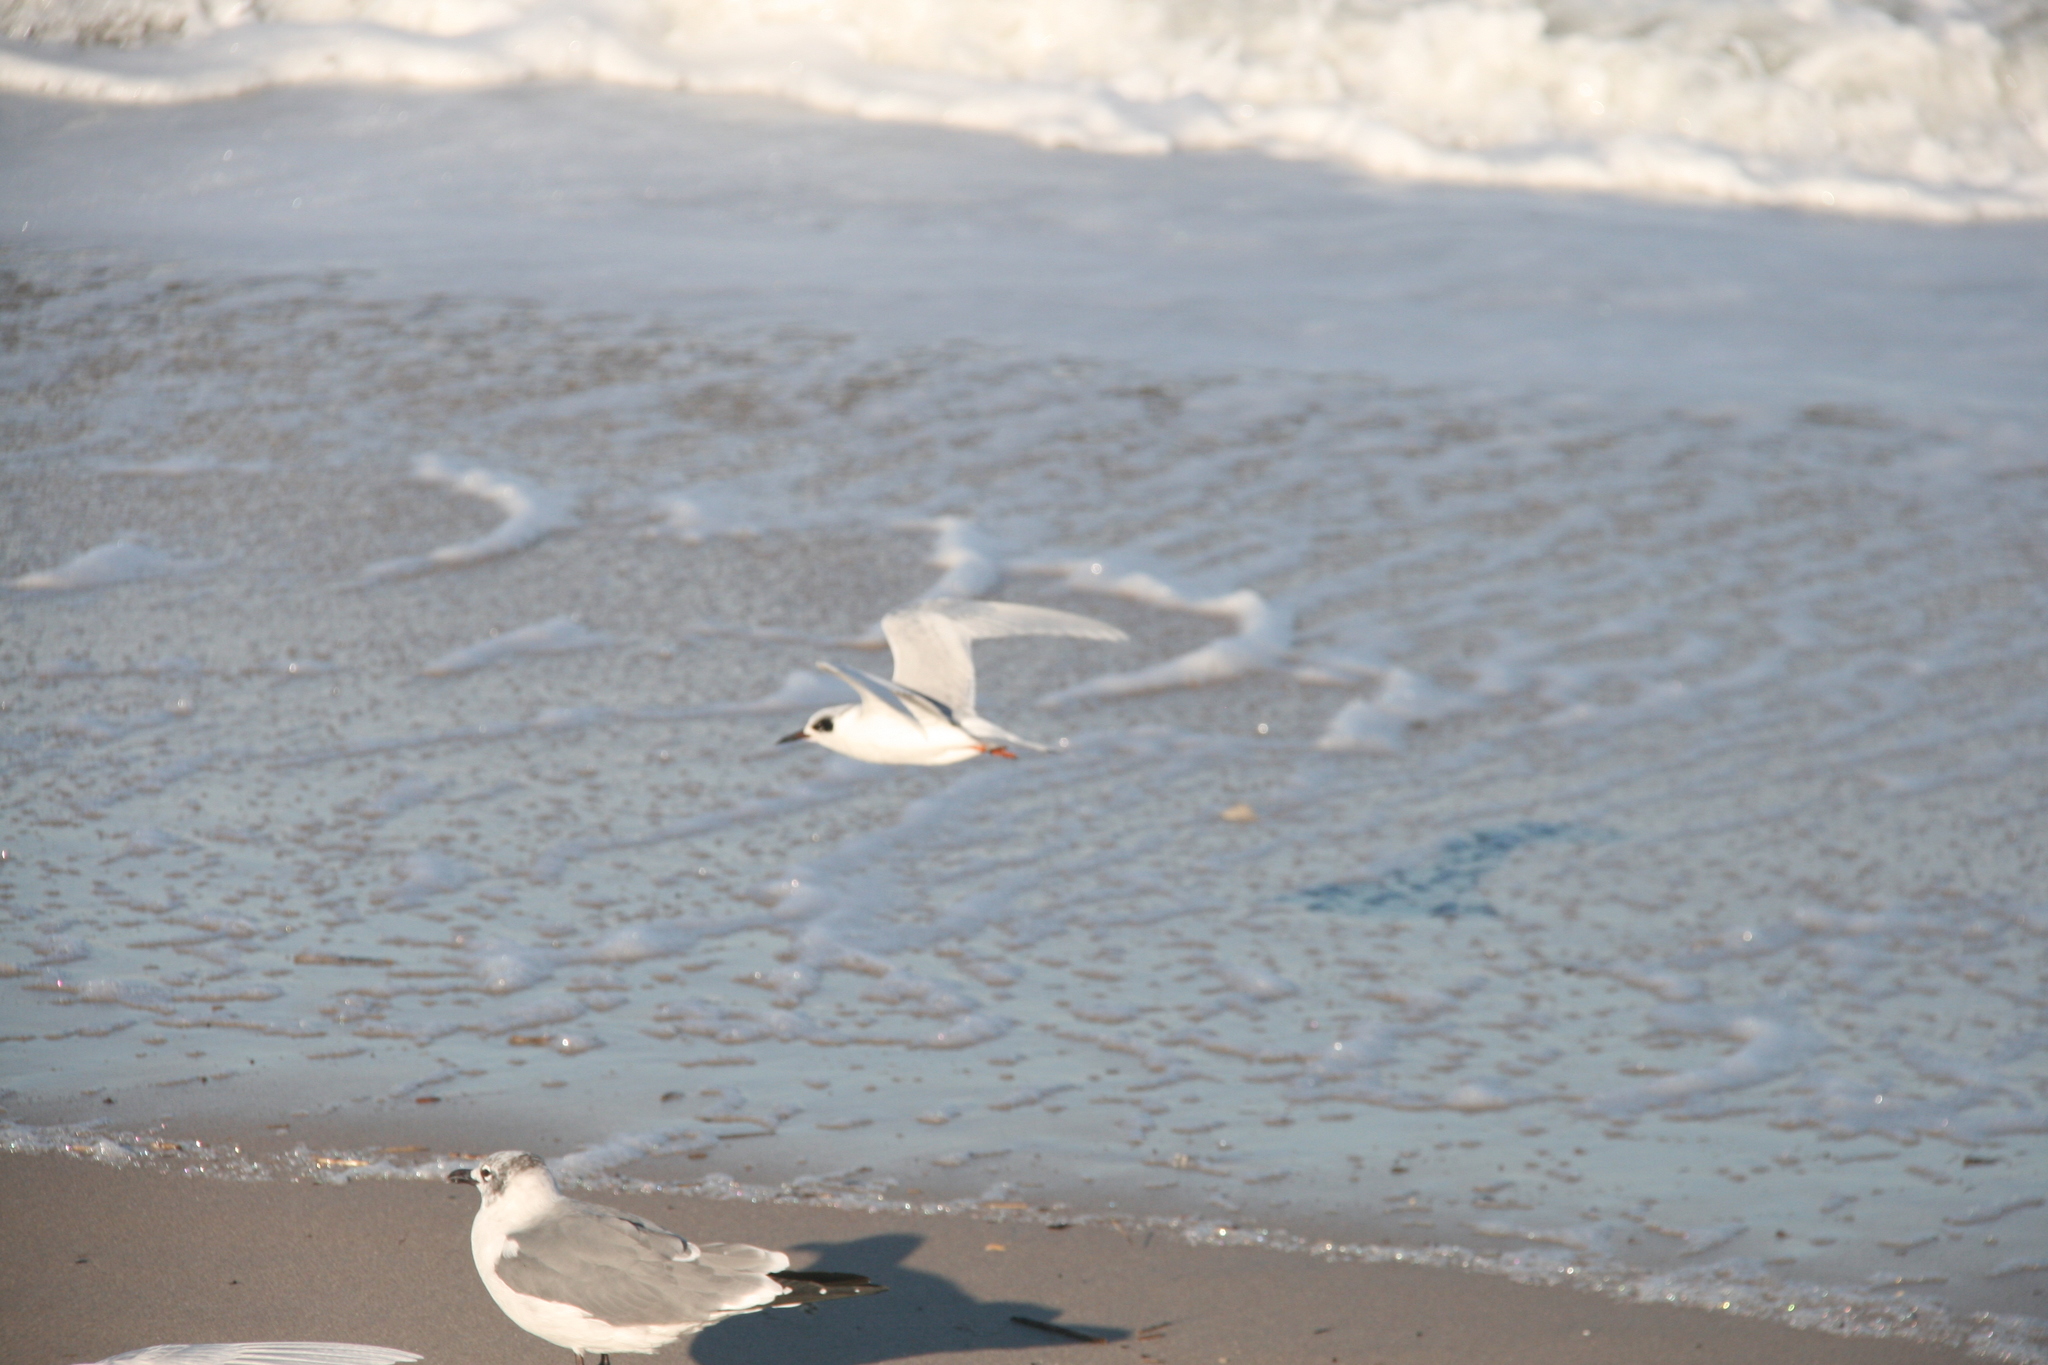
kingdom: Animalia
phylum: Chordata
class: Aves
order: Charadriiformes
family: Laridae
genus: Sterna
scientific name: Sterna forsteri
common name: Forster's tern
